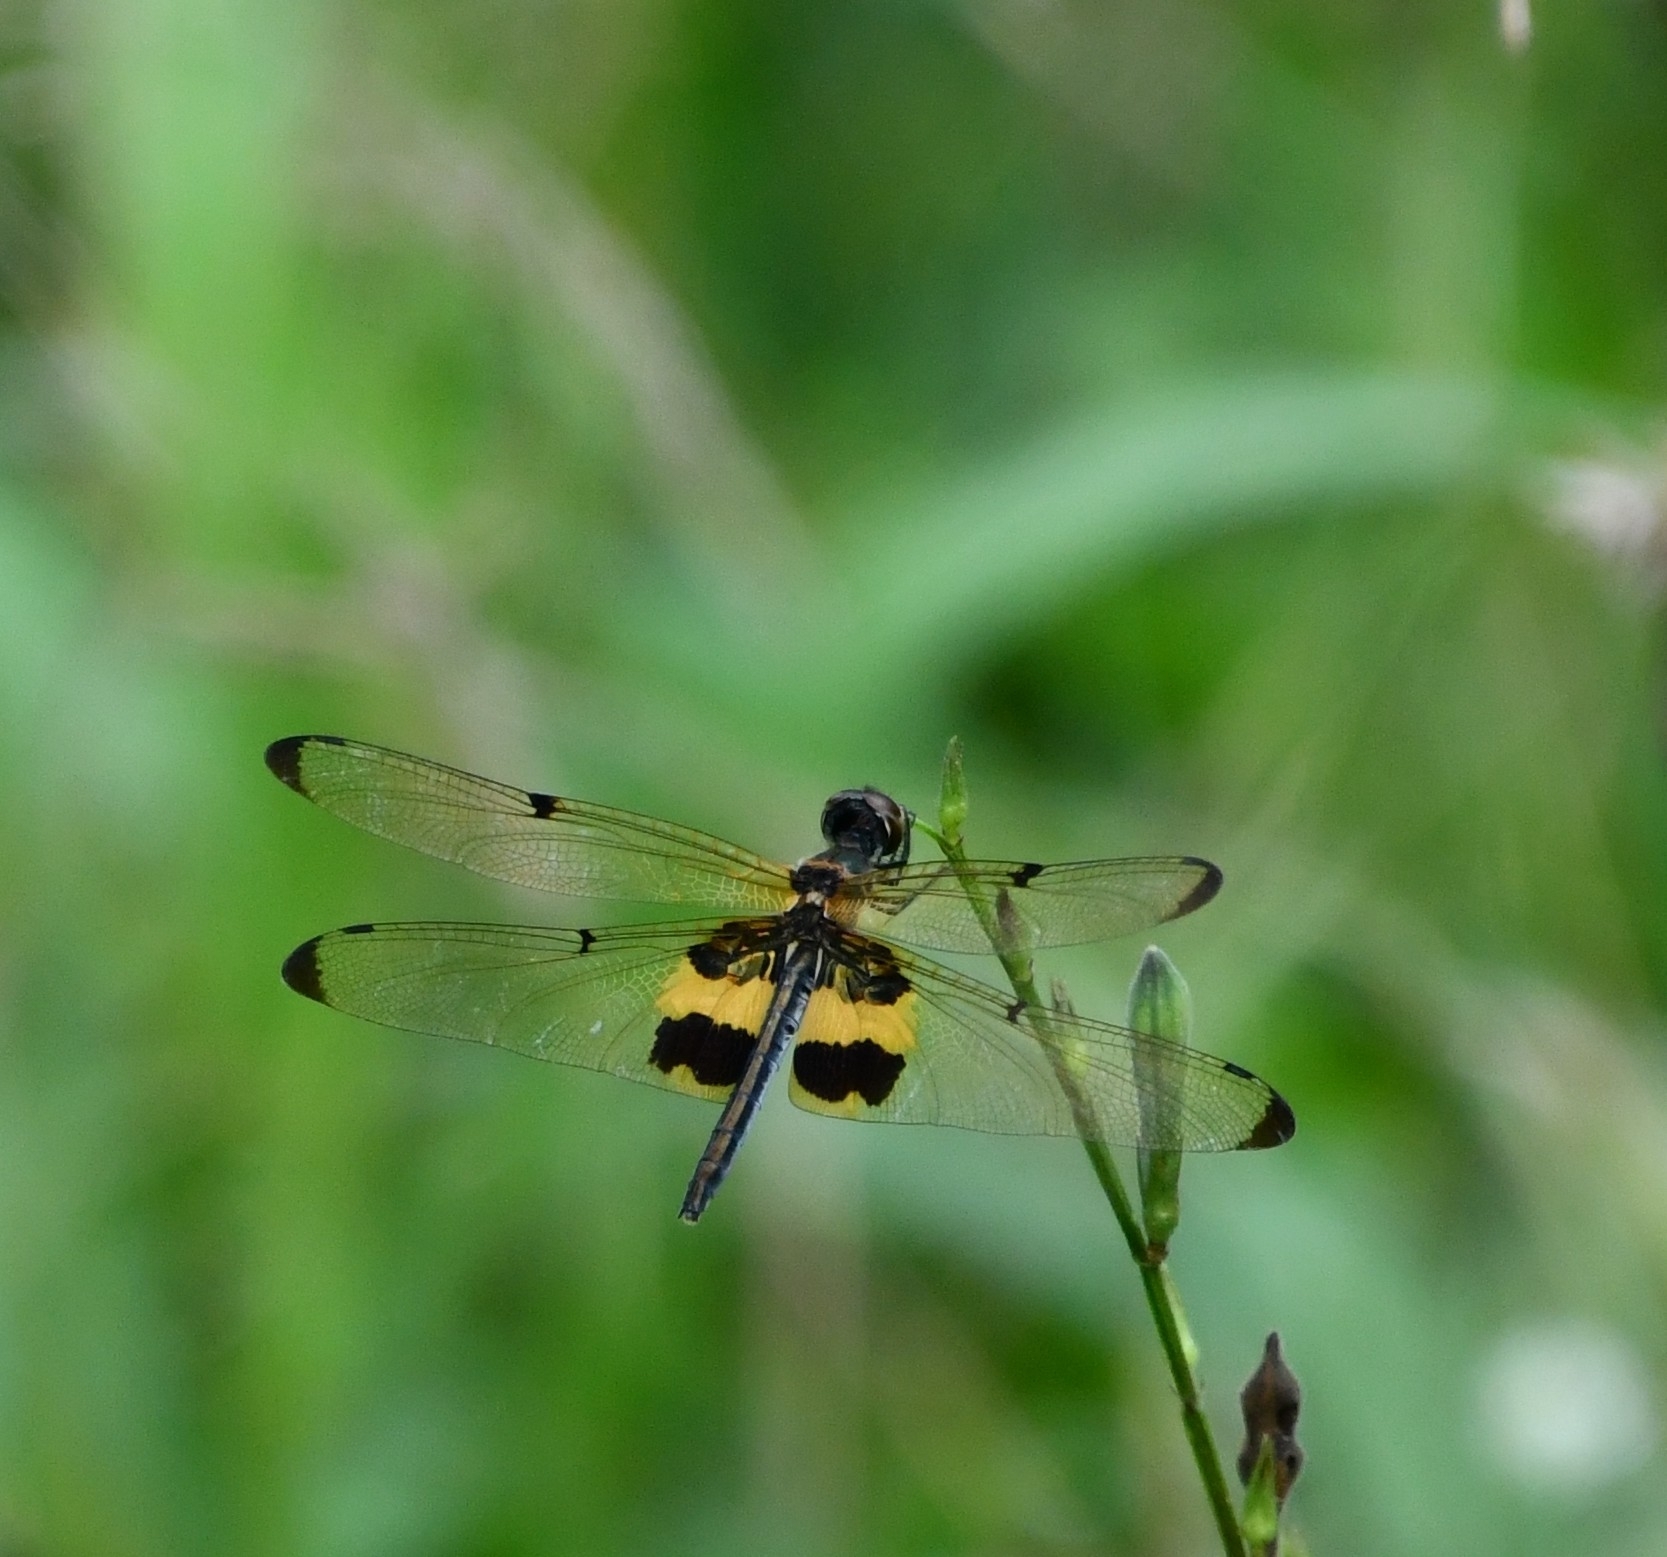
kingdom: Animalia
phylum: Arthropoda
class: Insecta
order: Odonata
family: Libellulidae
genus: Rhyothemis
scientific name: Rhyothemis phyllis
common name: Yellow-barred flutterer
